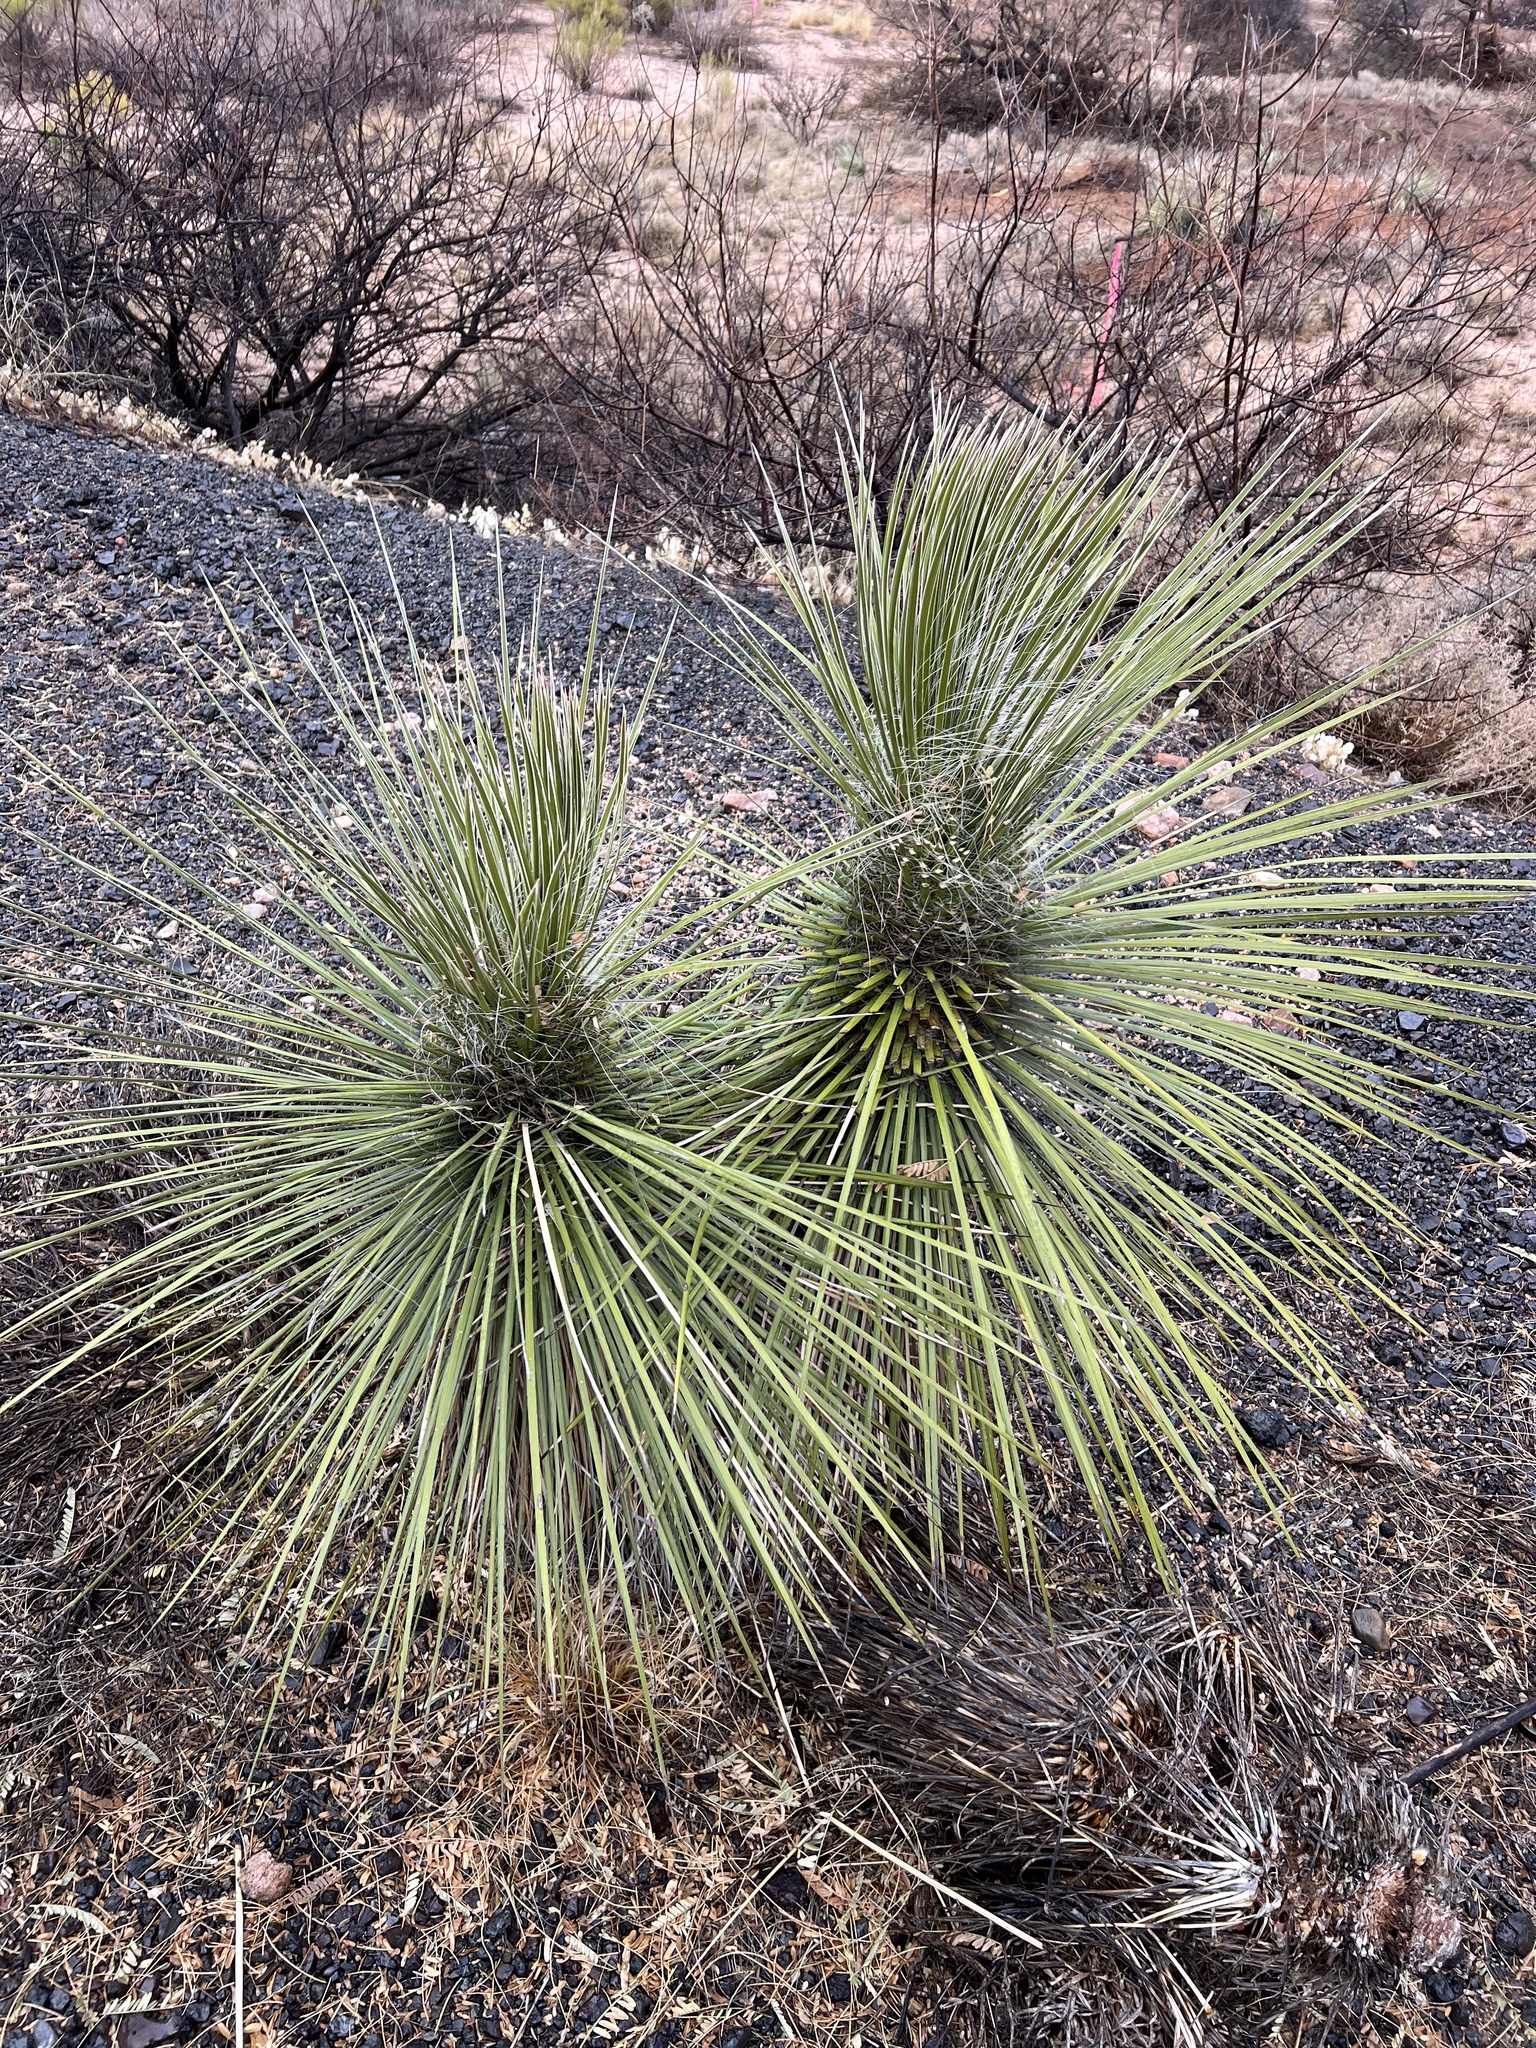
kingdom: Plantae
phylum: Tracheophyta
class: Liliopsida
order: Asparagales
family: Asparagaceae
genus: Yucca
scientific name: Yucca elata
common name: Palmella
